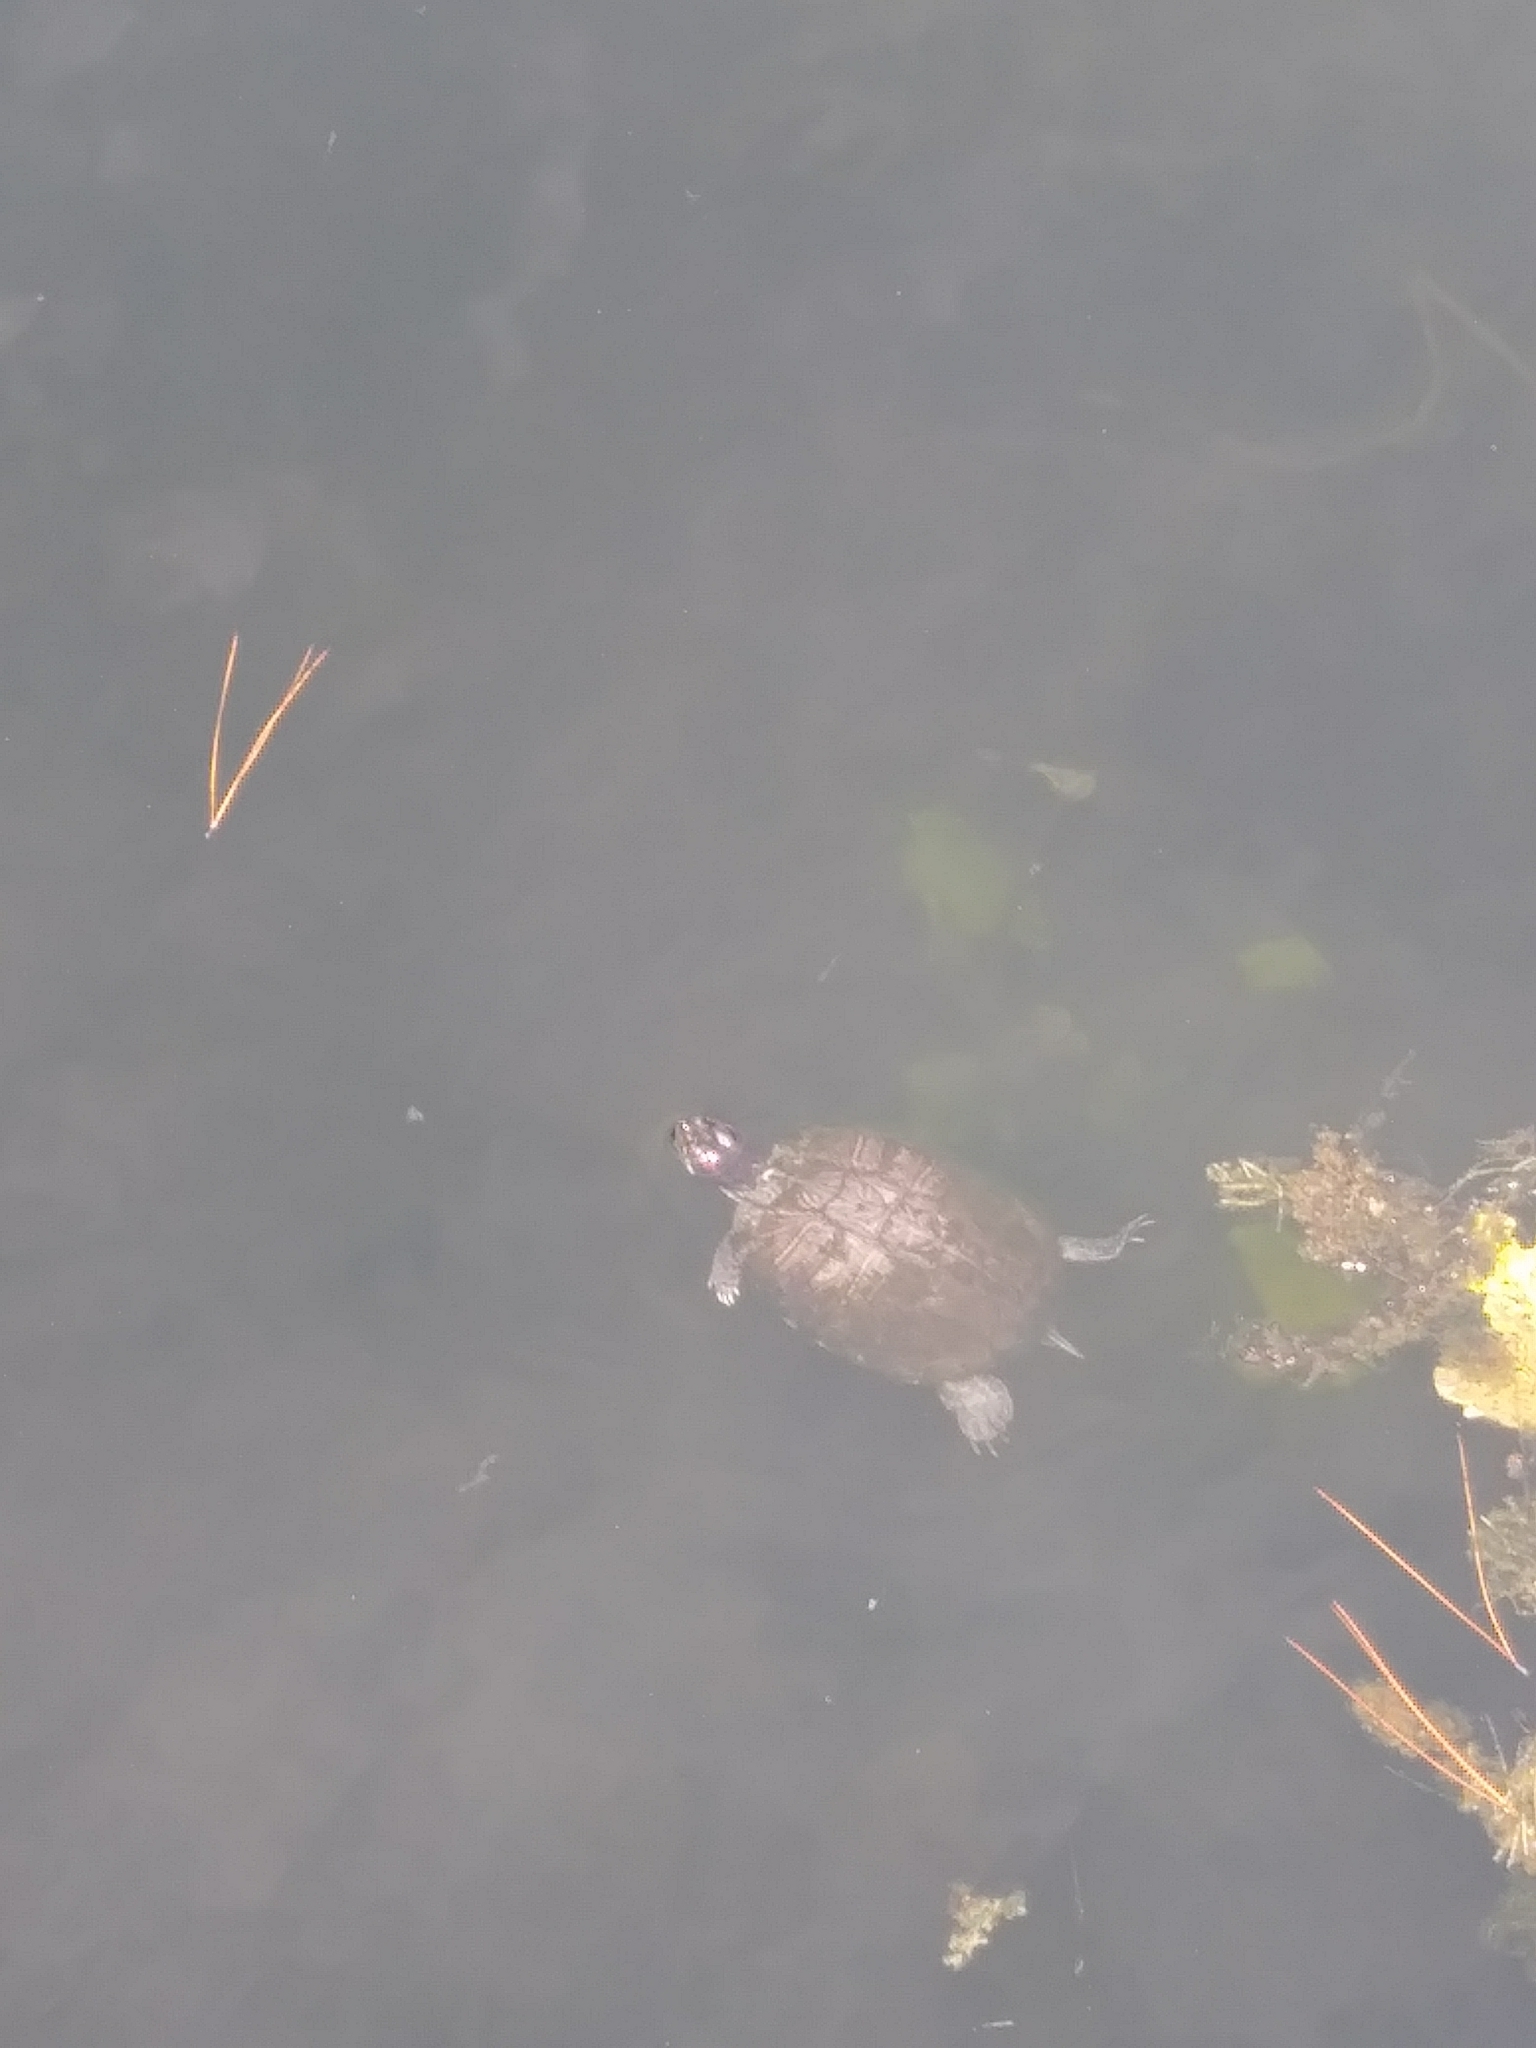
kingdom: Animalia
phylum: Chordata
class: Testudines
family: Emydidae
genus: Trachemys
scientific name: Trachemys scripta
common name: Slider
